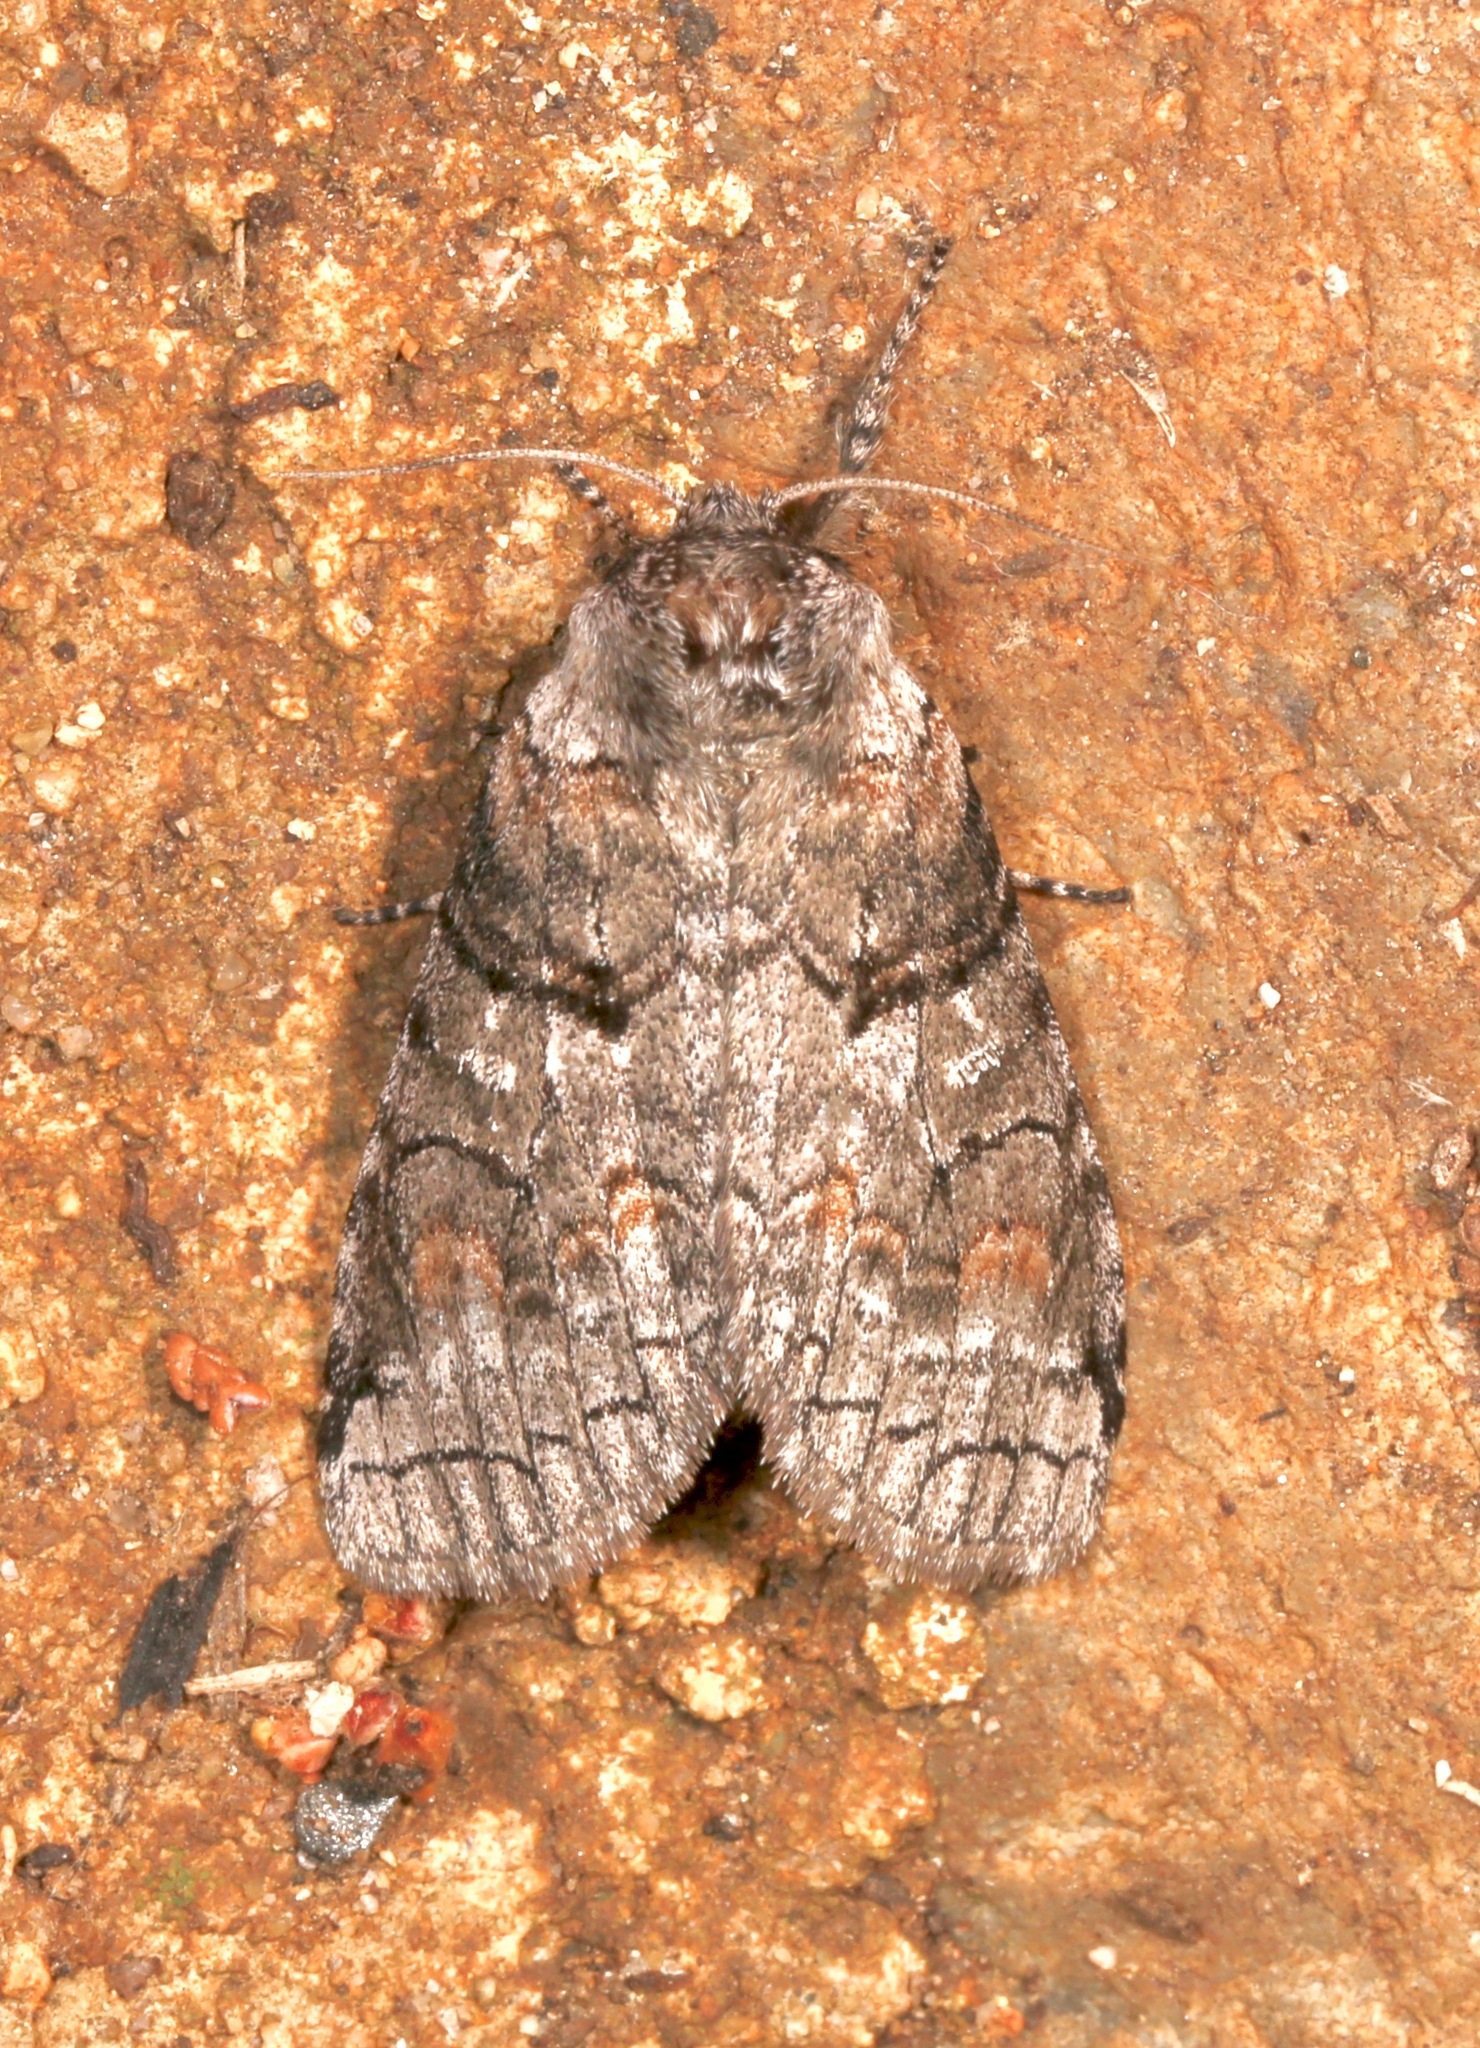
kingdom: Animalia
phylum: Arthropoda
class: Insecta
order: Lepidoptera
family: Notodontidae
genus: Afilia
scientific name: Afilia oslari
